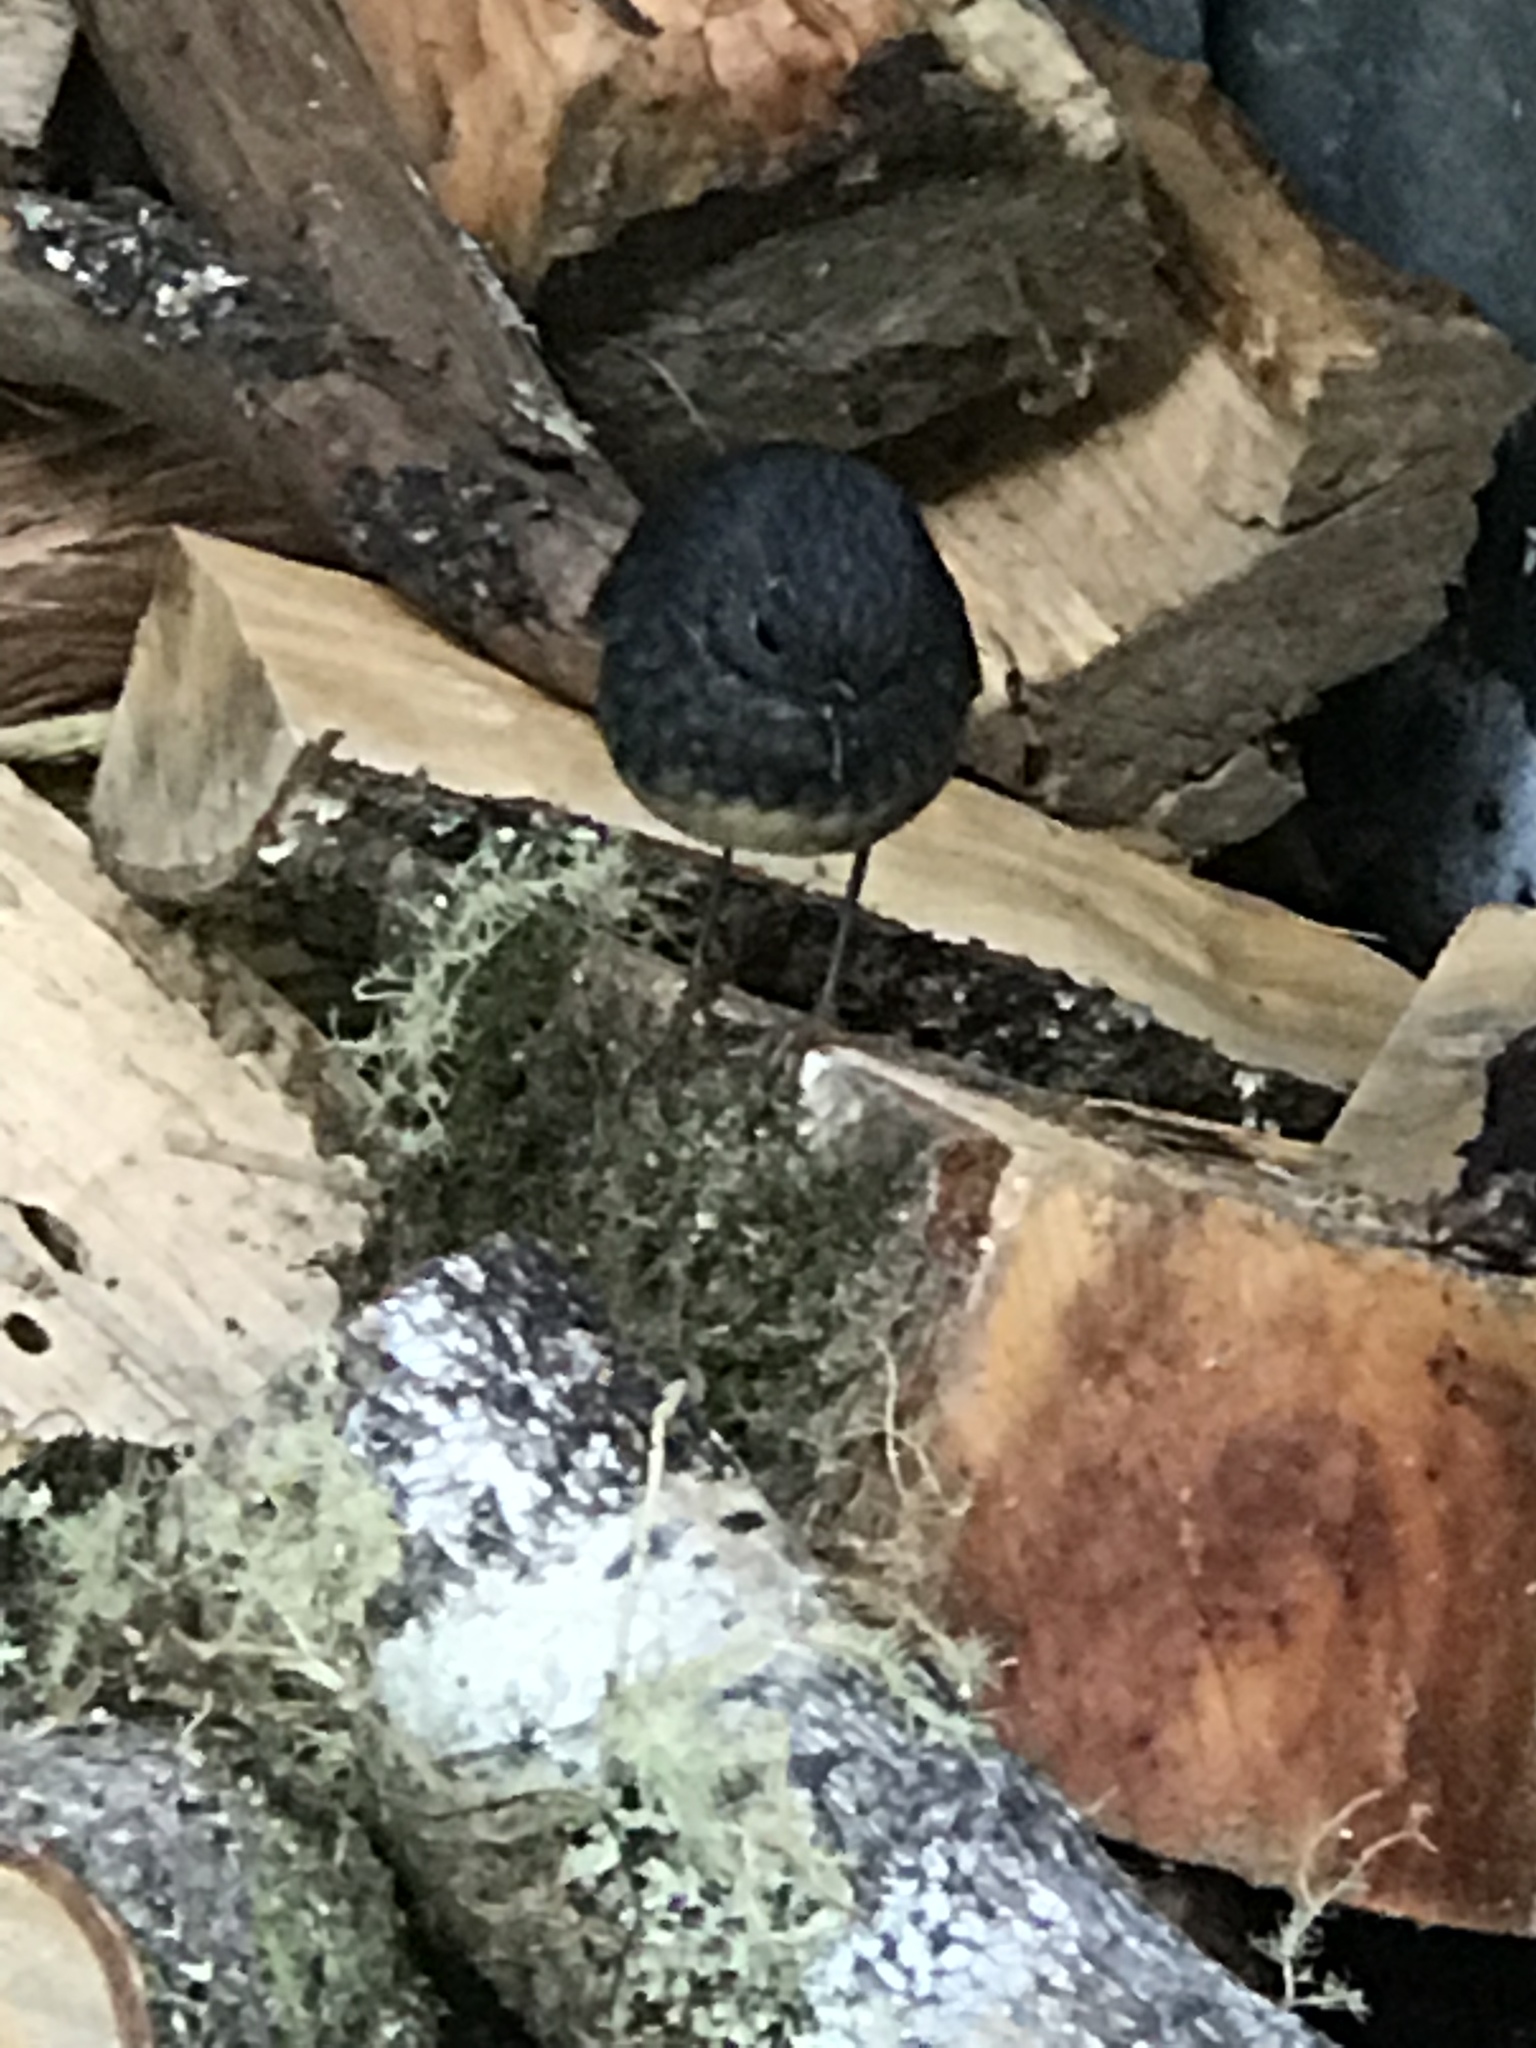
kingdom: Animalia
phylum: Chordata
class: Aves
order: Passeriformes
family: Petroicidae
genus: Petroica
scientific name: Petroica australis
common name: New zealand robin
